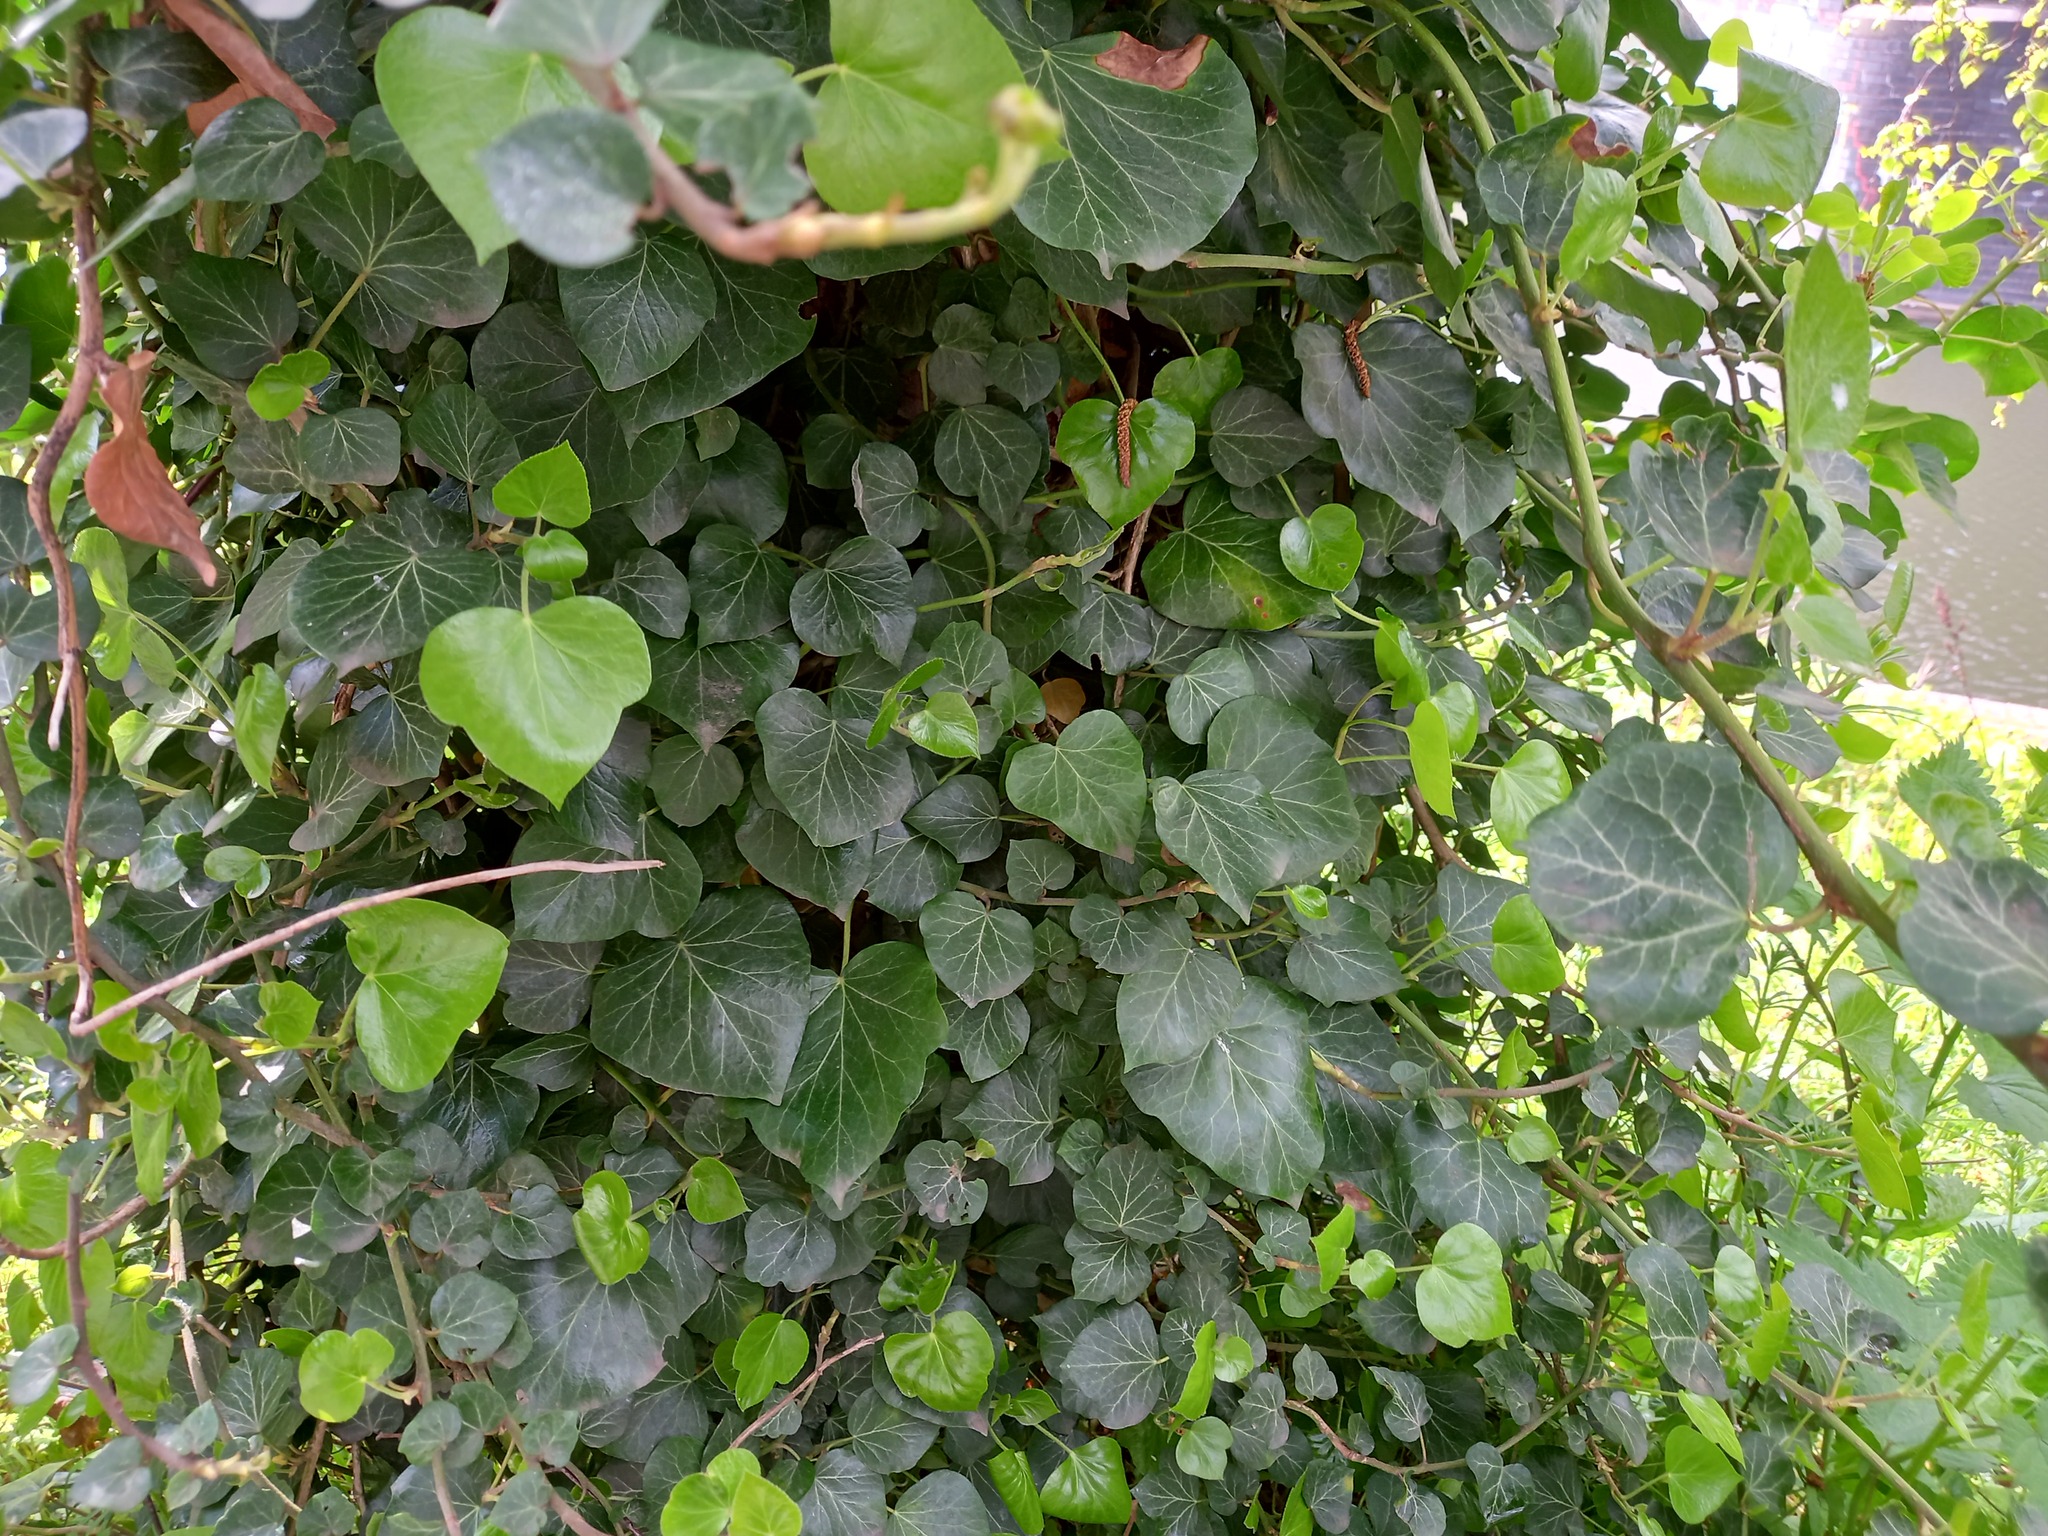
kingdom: Plantae
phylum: Tracheophyta
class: Magnoliopsida
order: Apiales
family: Araliaceae
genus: Hedera
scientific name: Hedera helix
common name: Ivy
